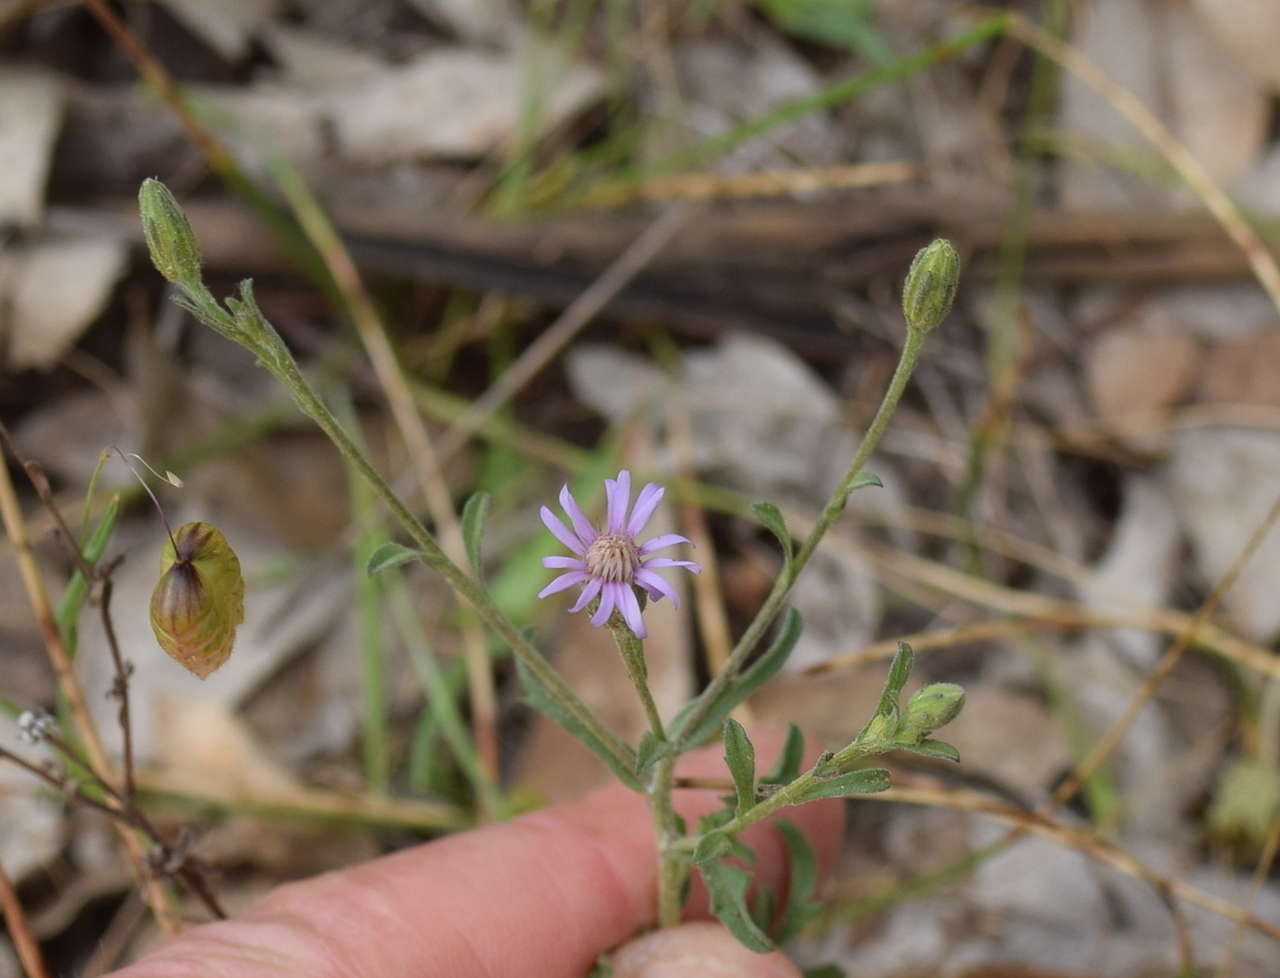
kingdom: Plantae
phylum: Tracheophyta
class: Magnoliopsida
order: Asterales
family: Asteraceae
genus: Vittadinia
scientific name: Vittadinia cuneata
